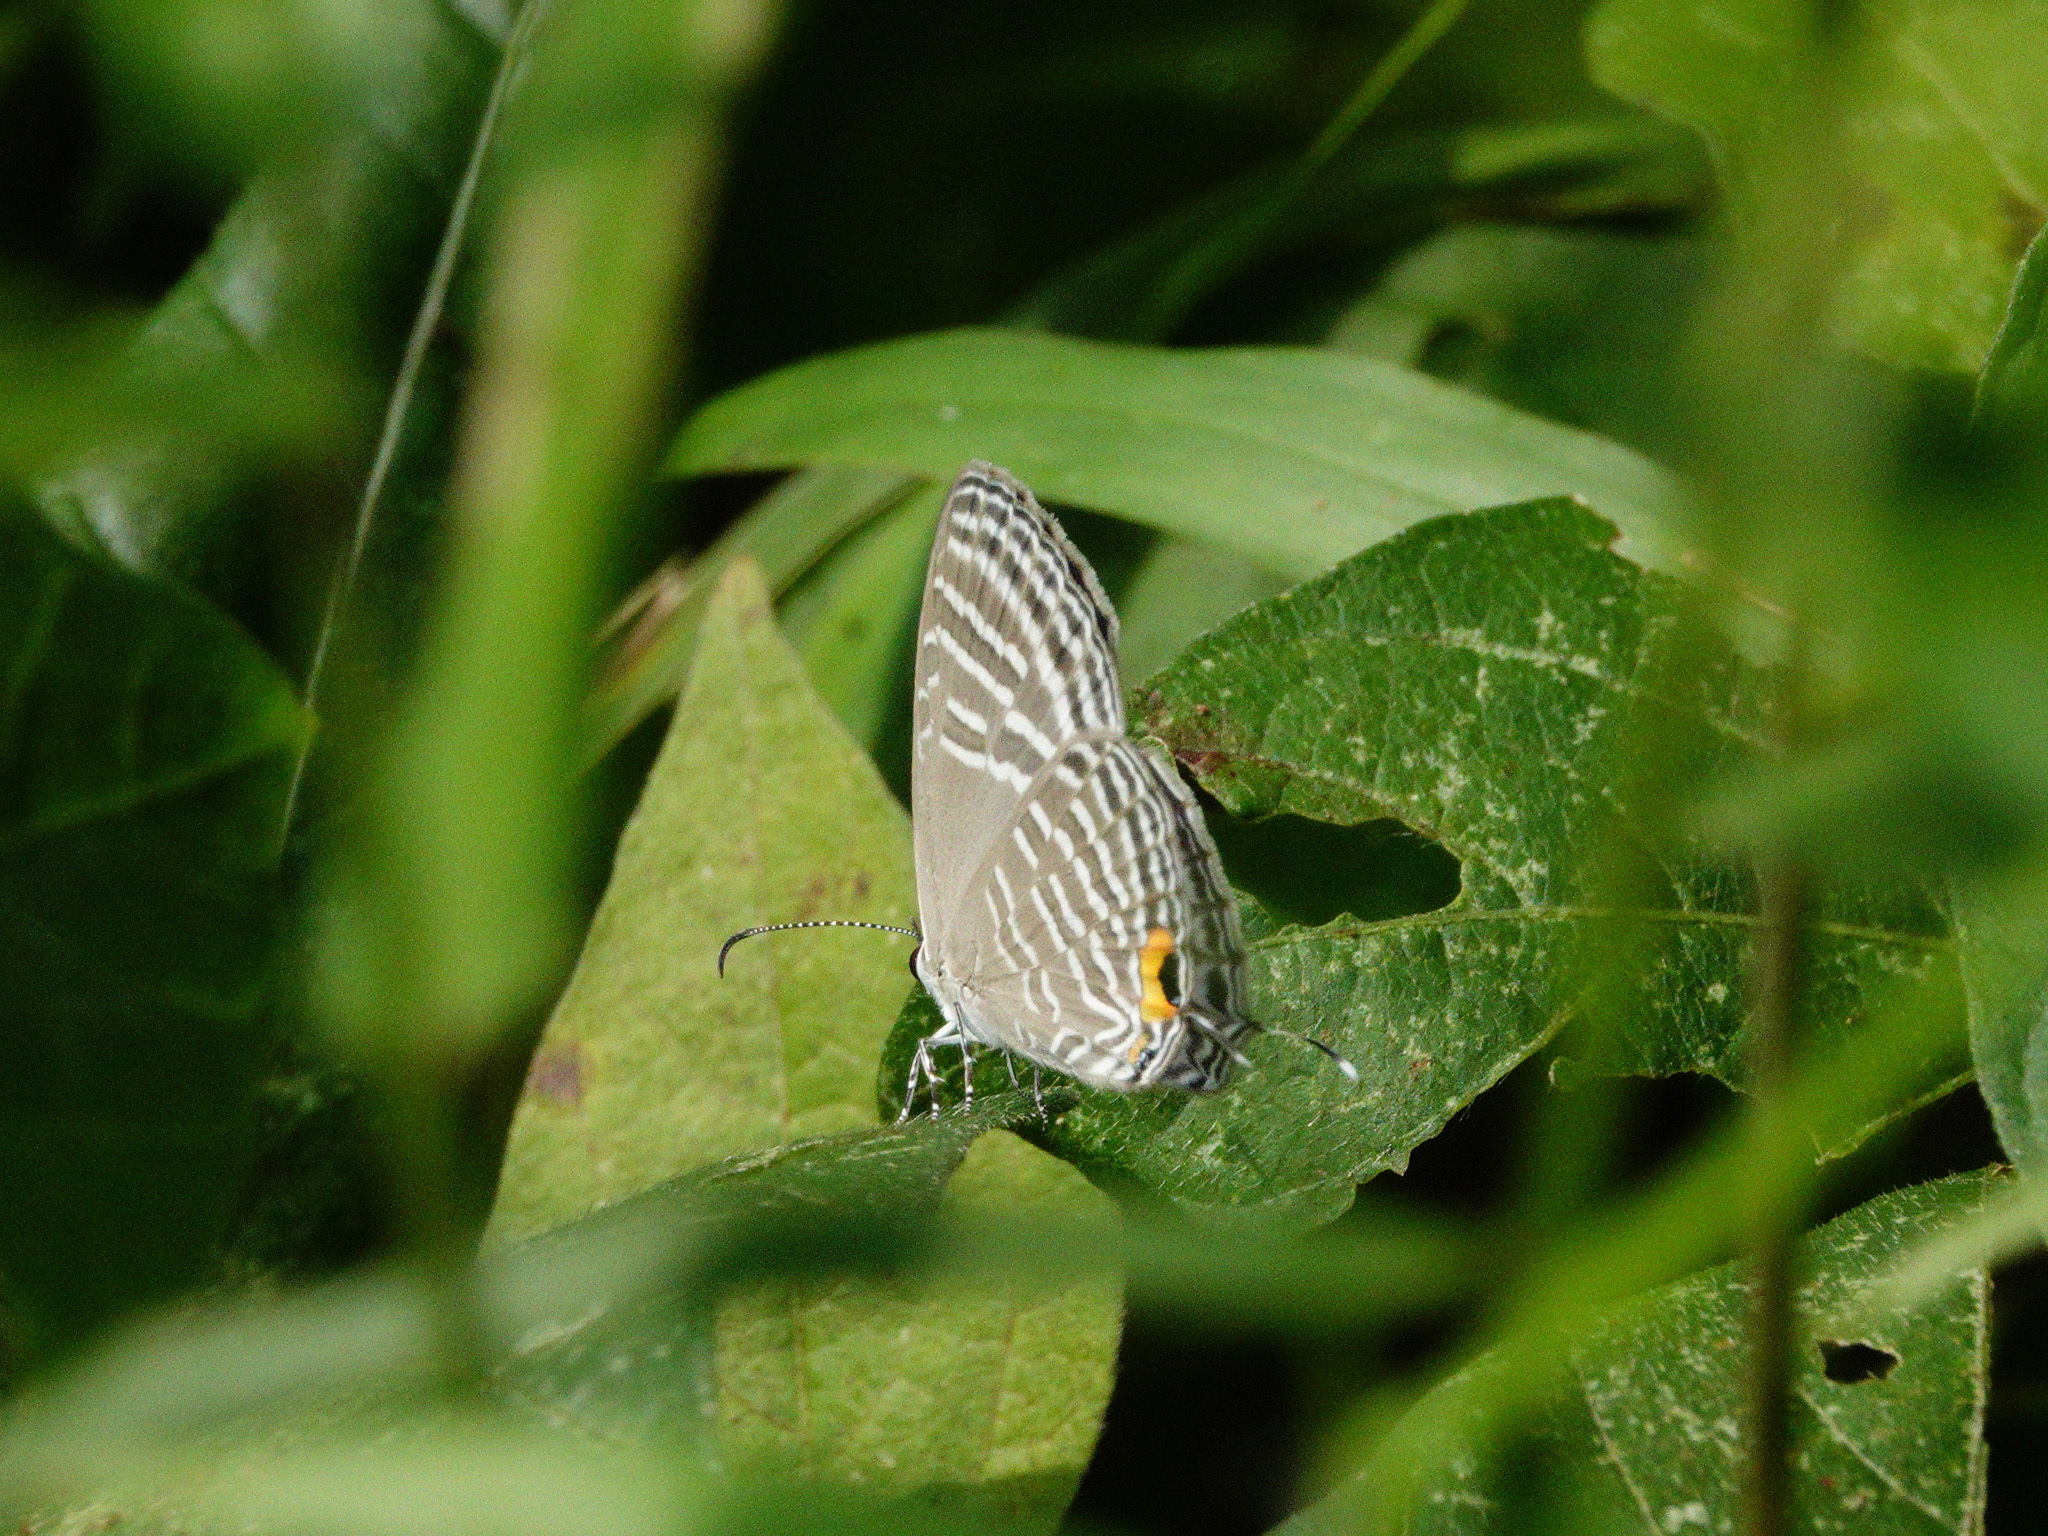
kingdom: Animalia
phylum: Arthropoda
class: Insecta
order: Lepidoptera
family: Lycaenidae
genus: Jamides
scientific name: Jamides celeno
